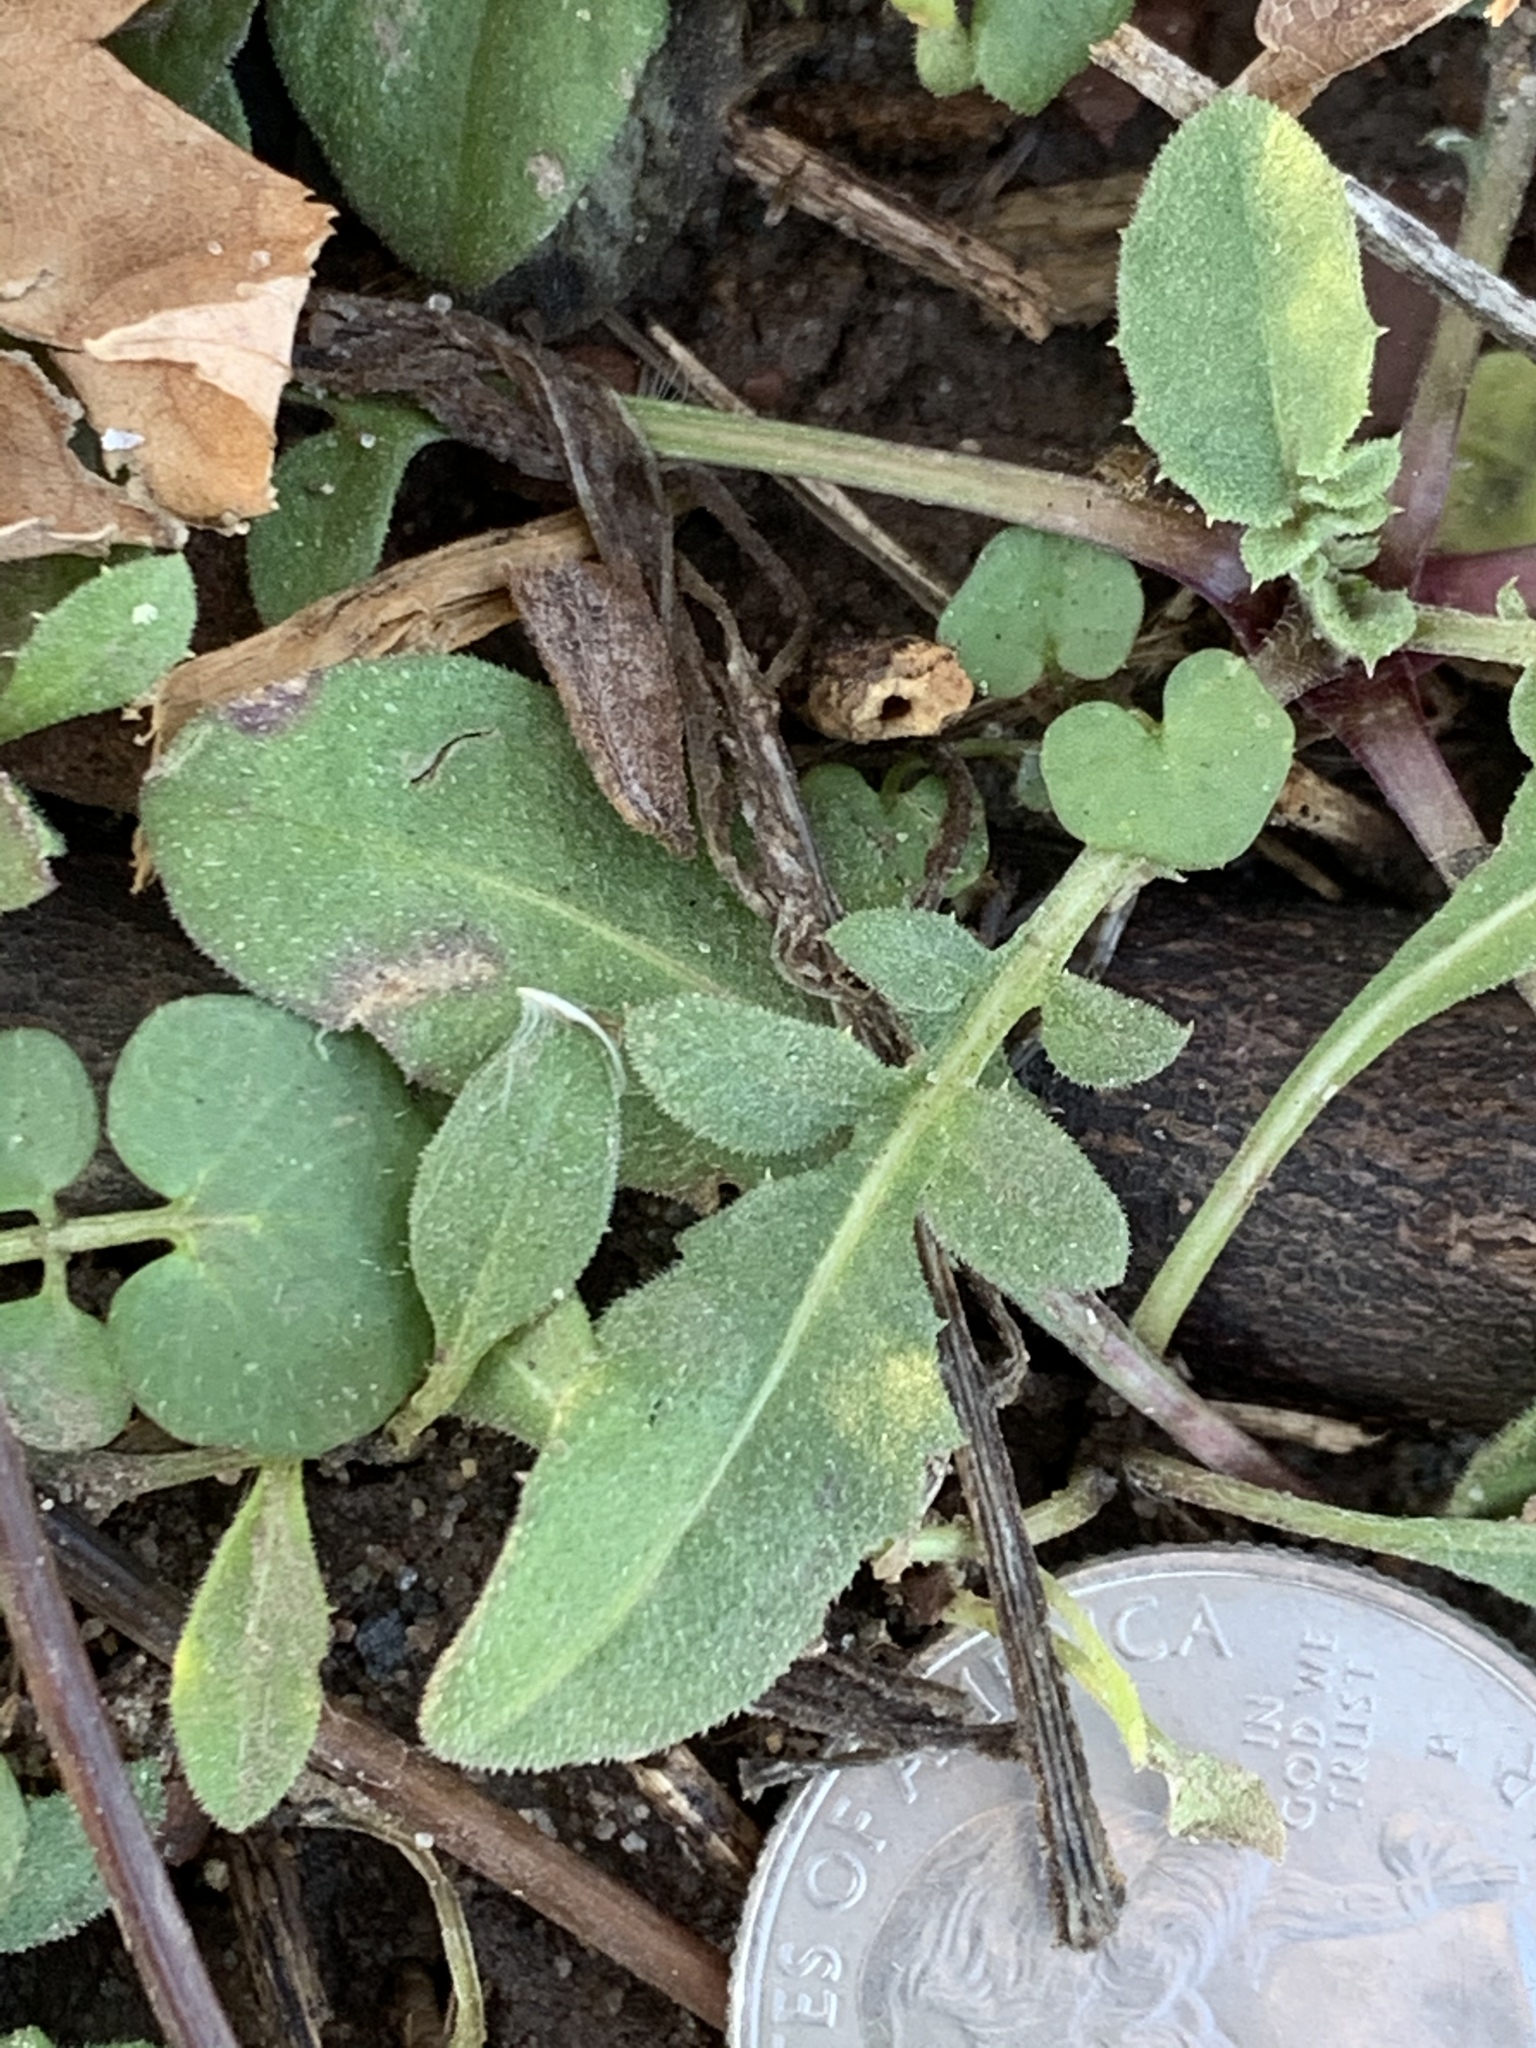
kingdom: Plantae
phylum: Tracheophyta
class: Magnoliopsida
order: Asterales
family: Asteraceae
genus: Centaurea
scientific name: Centaurea stoebe
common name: Spotted knapweed
